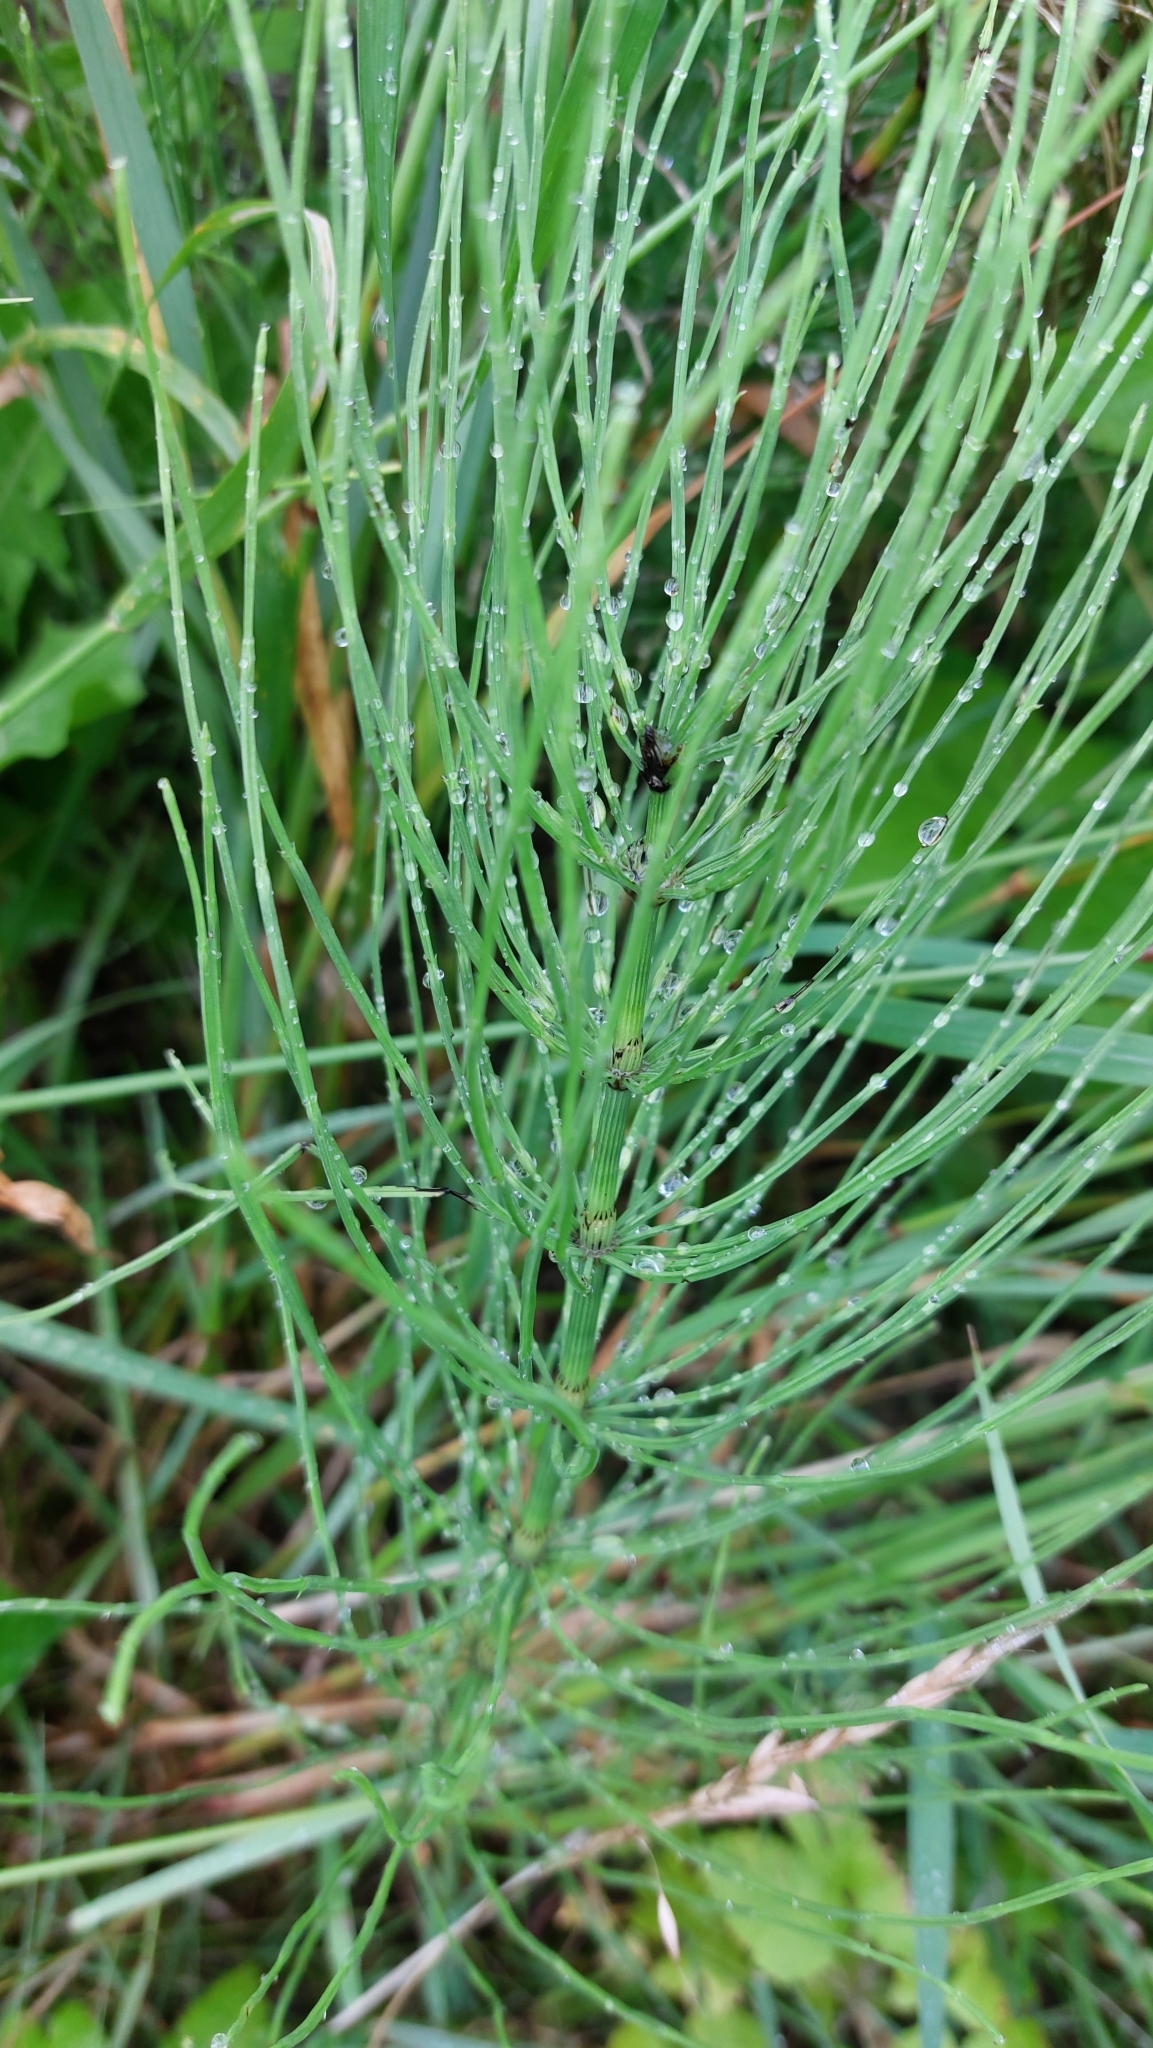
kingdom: Plantae
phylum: Tracheophyta
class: Polypodiopsida
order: Equisetales
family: Equisetaceae
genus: Equisetum
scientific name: Equisetum arvense
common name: Field horsetail
